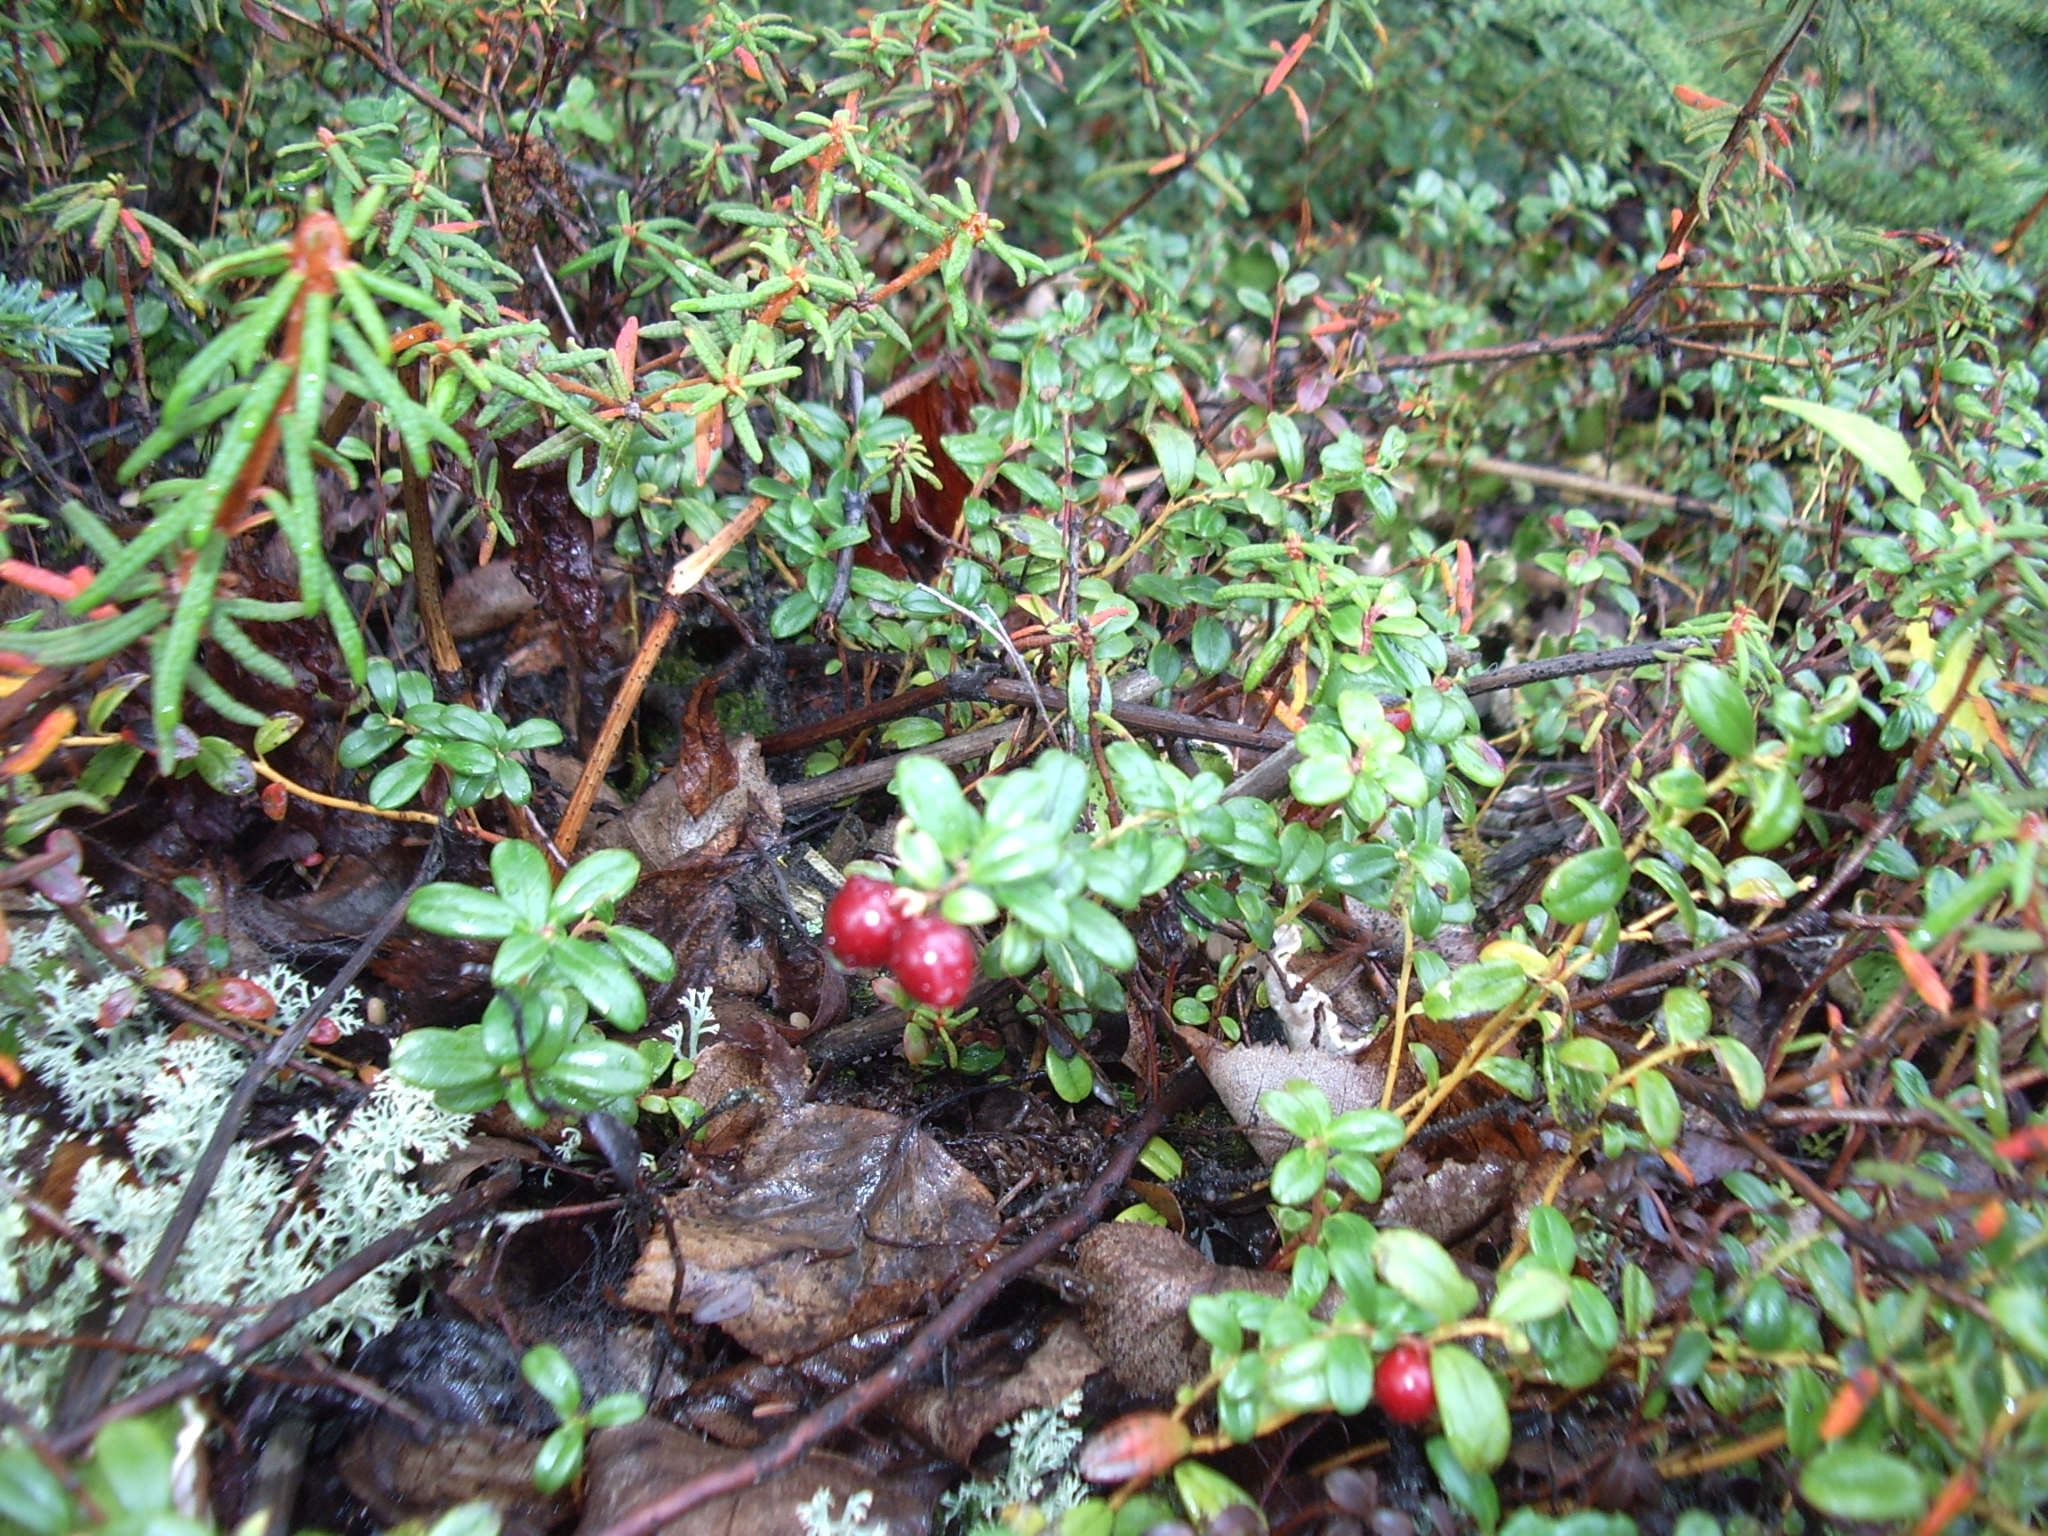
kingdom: Plantae
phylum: Tracheophyta
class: Magnoliopsida
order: Ericales
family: Ericaceae
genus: Vaccinium
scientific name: Vaccinium vitis-idaea
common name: Cowberry
